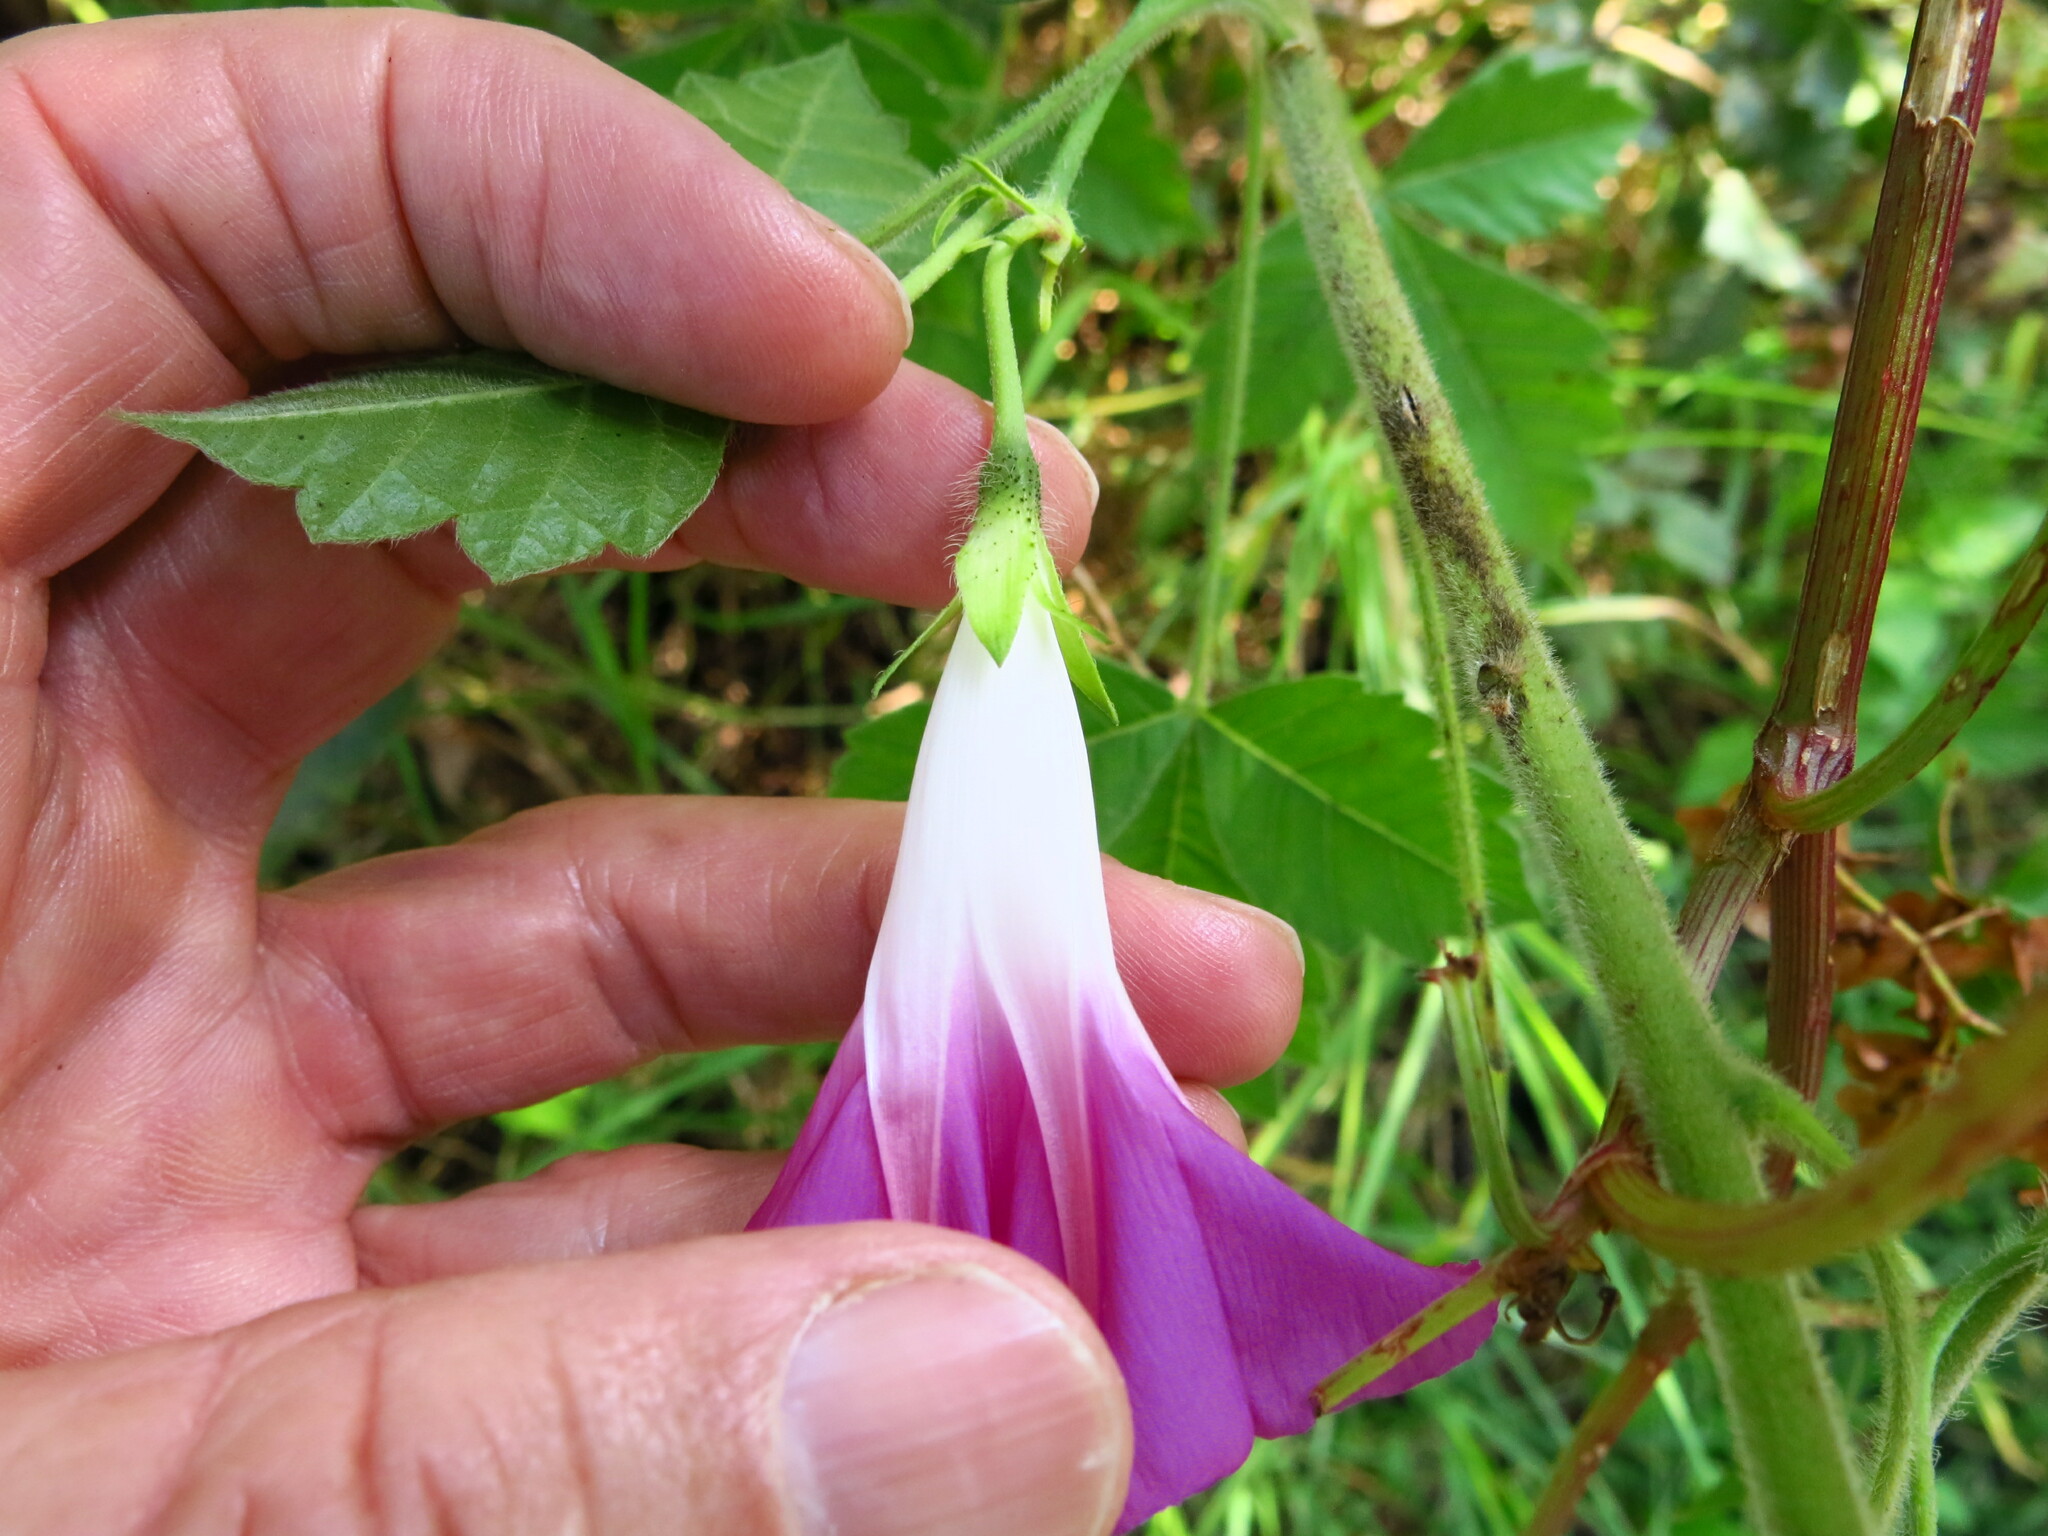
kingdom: Plantae
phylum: Tracheophyta
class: Magnoliopsida
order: Solanales
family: Convolvulaceae
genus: Ipomoea
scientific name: Ipomoea purpurea
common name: Common morning-glory
